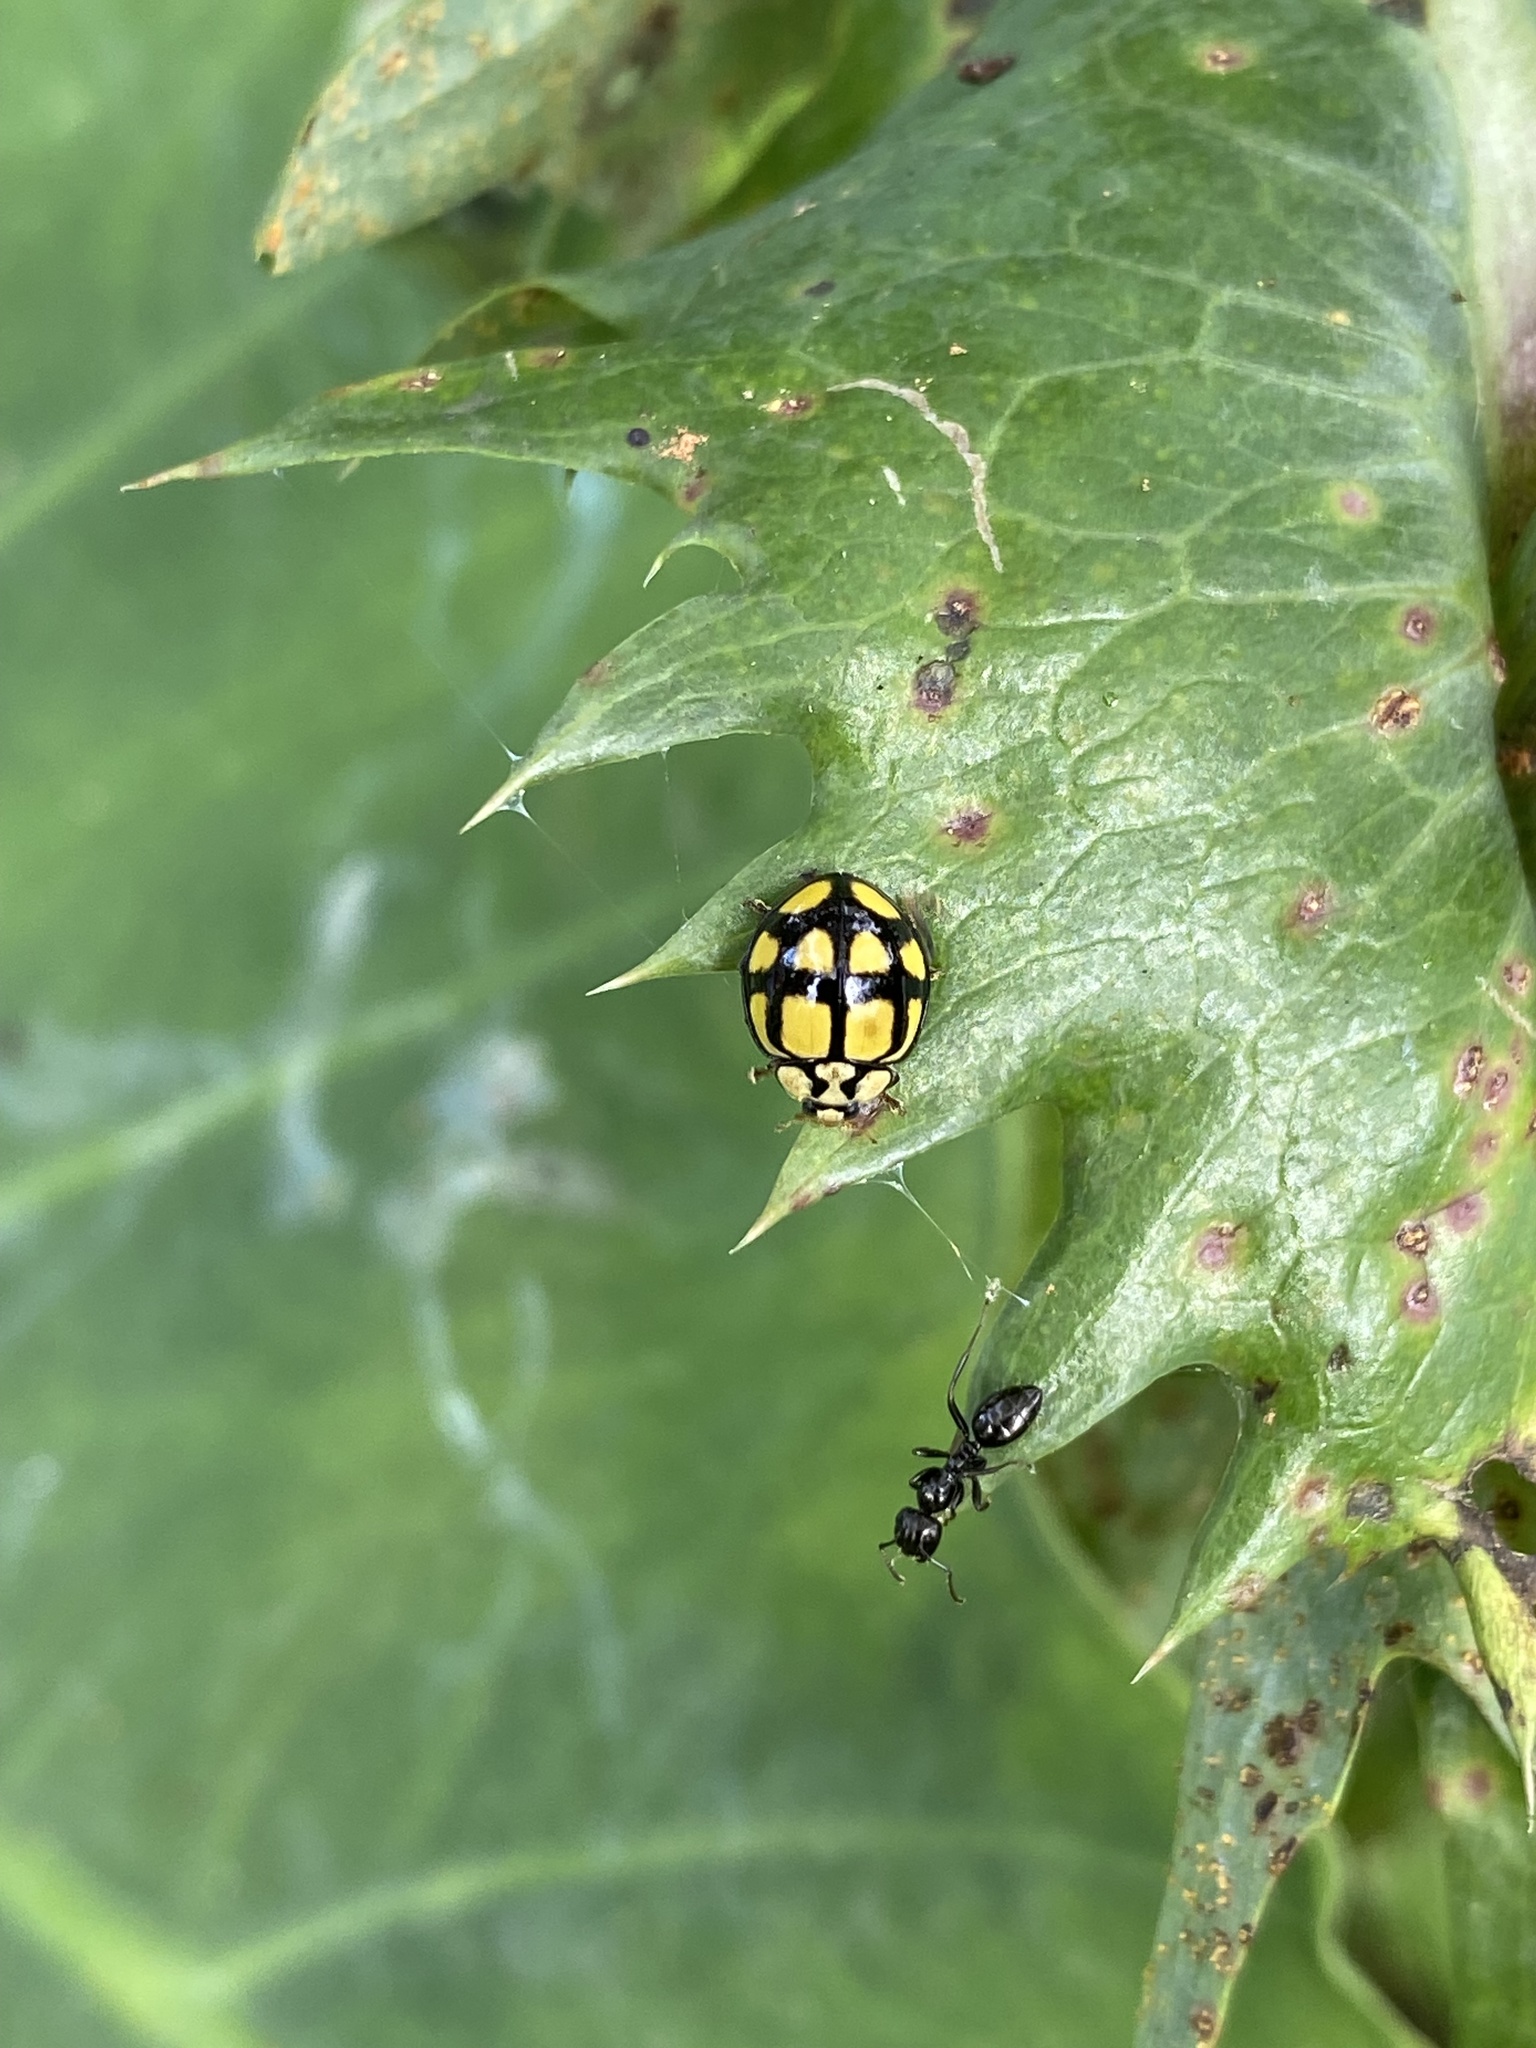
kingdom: Animalia
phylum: Arthropoda
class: Insecta
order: Coleoptera
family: Coccinellidae
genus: Harmonia
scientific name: Harmonia
